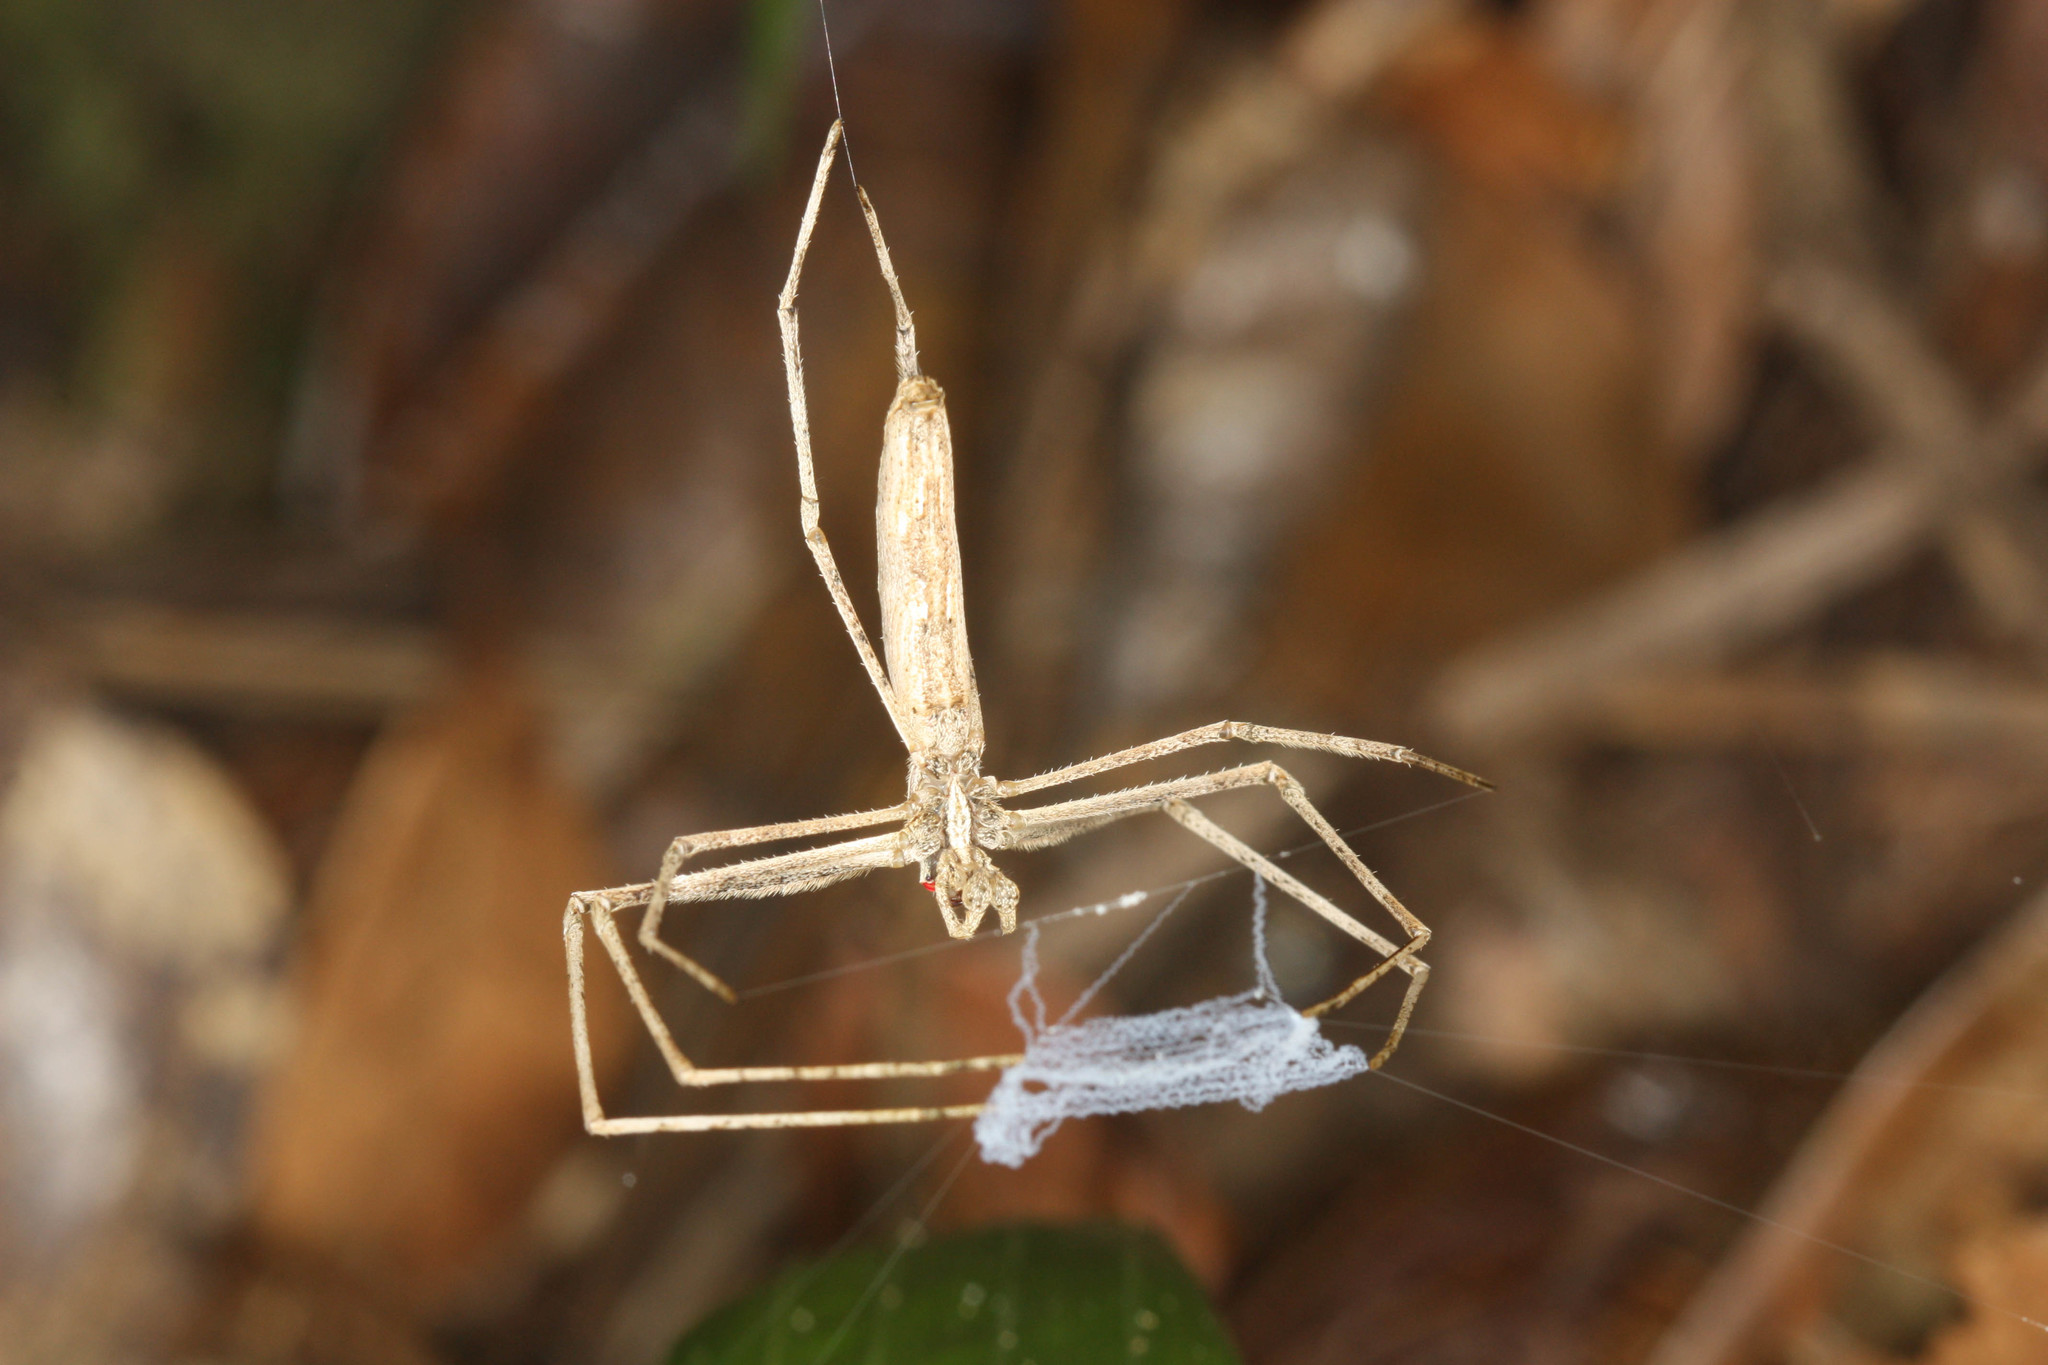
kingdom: Animalia
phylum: Arthropoda
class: Arachnida
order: Araneae
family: Deinopidae
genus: Deinopis
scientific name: Deinopis madagascariensis
